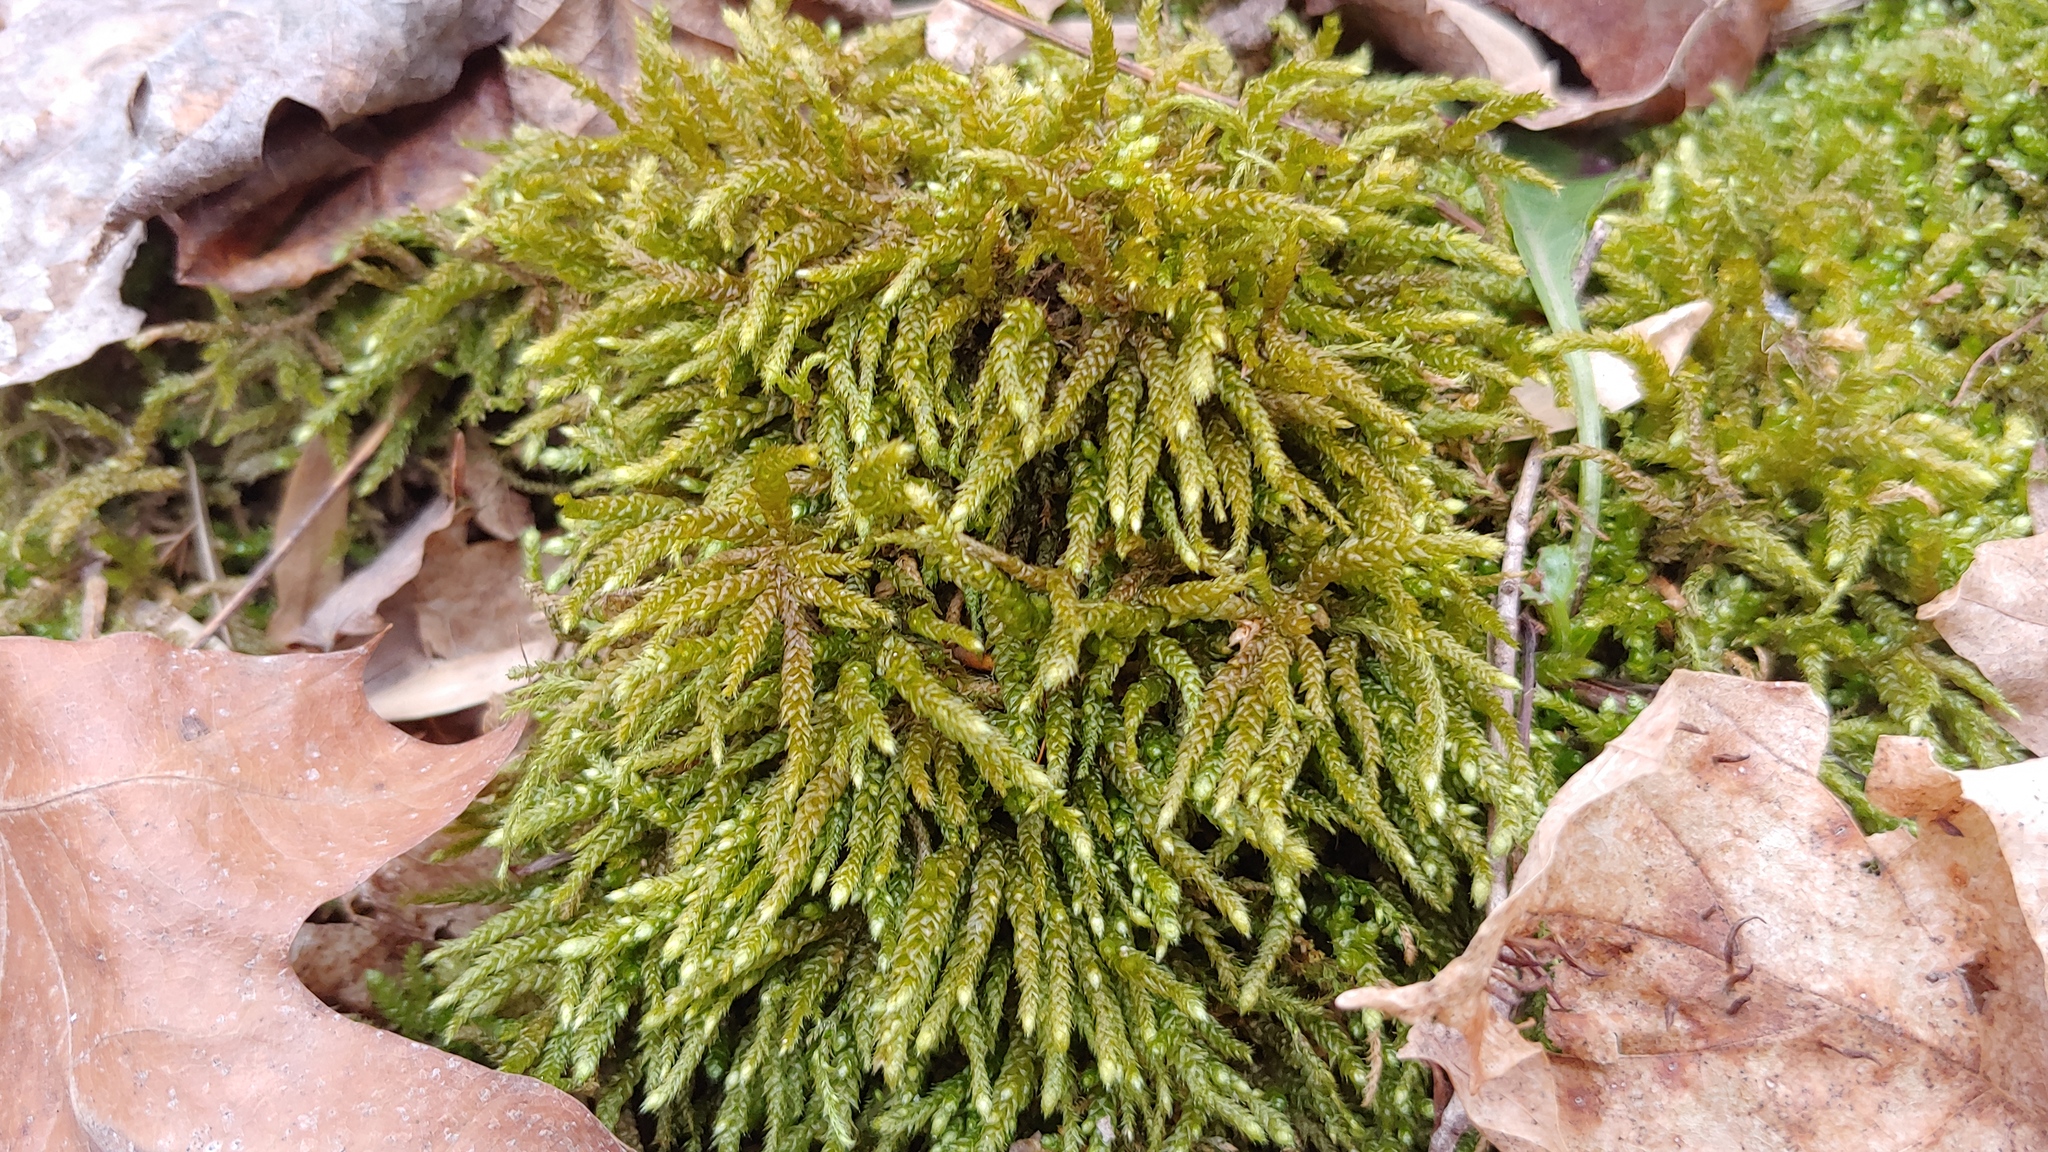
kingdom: Plantae
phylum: Bryophyta
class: Bryopsida
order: Hypnales
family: Brachytheciaceae
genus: Bryoandersonia
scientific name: Bryoandersonia illecebra
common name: Spoon-leaved moss
